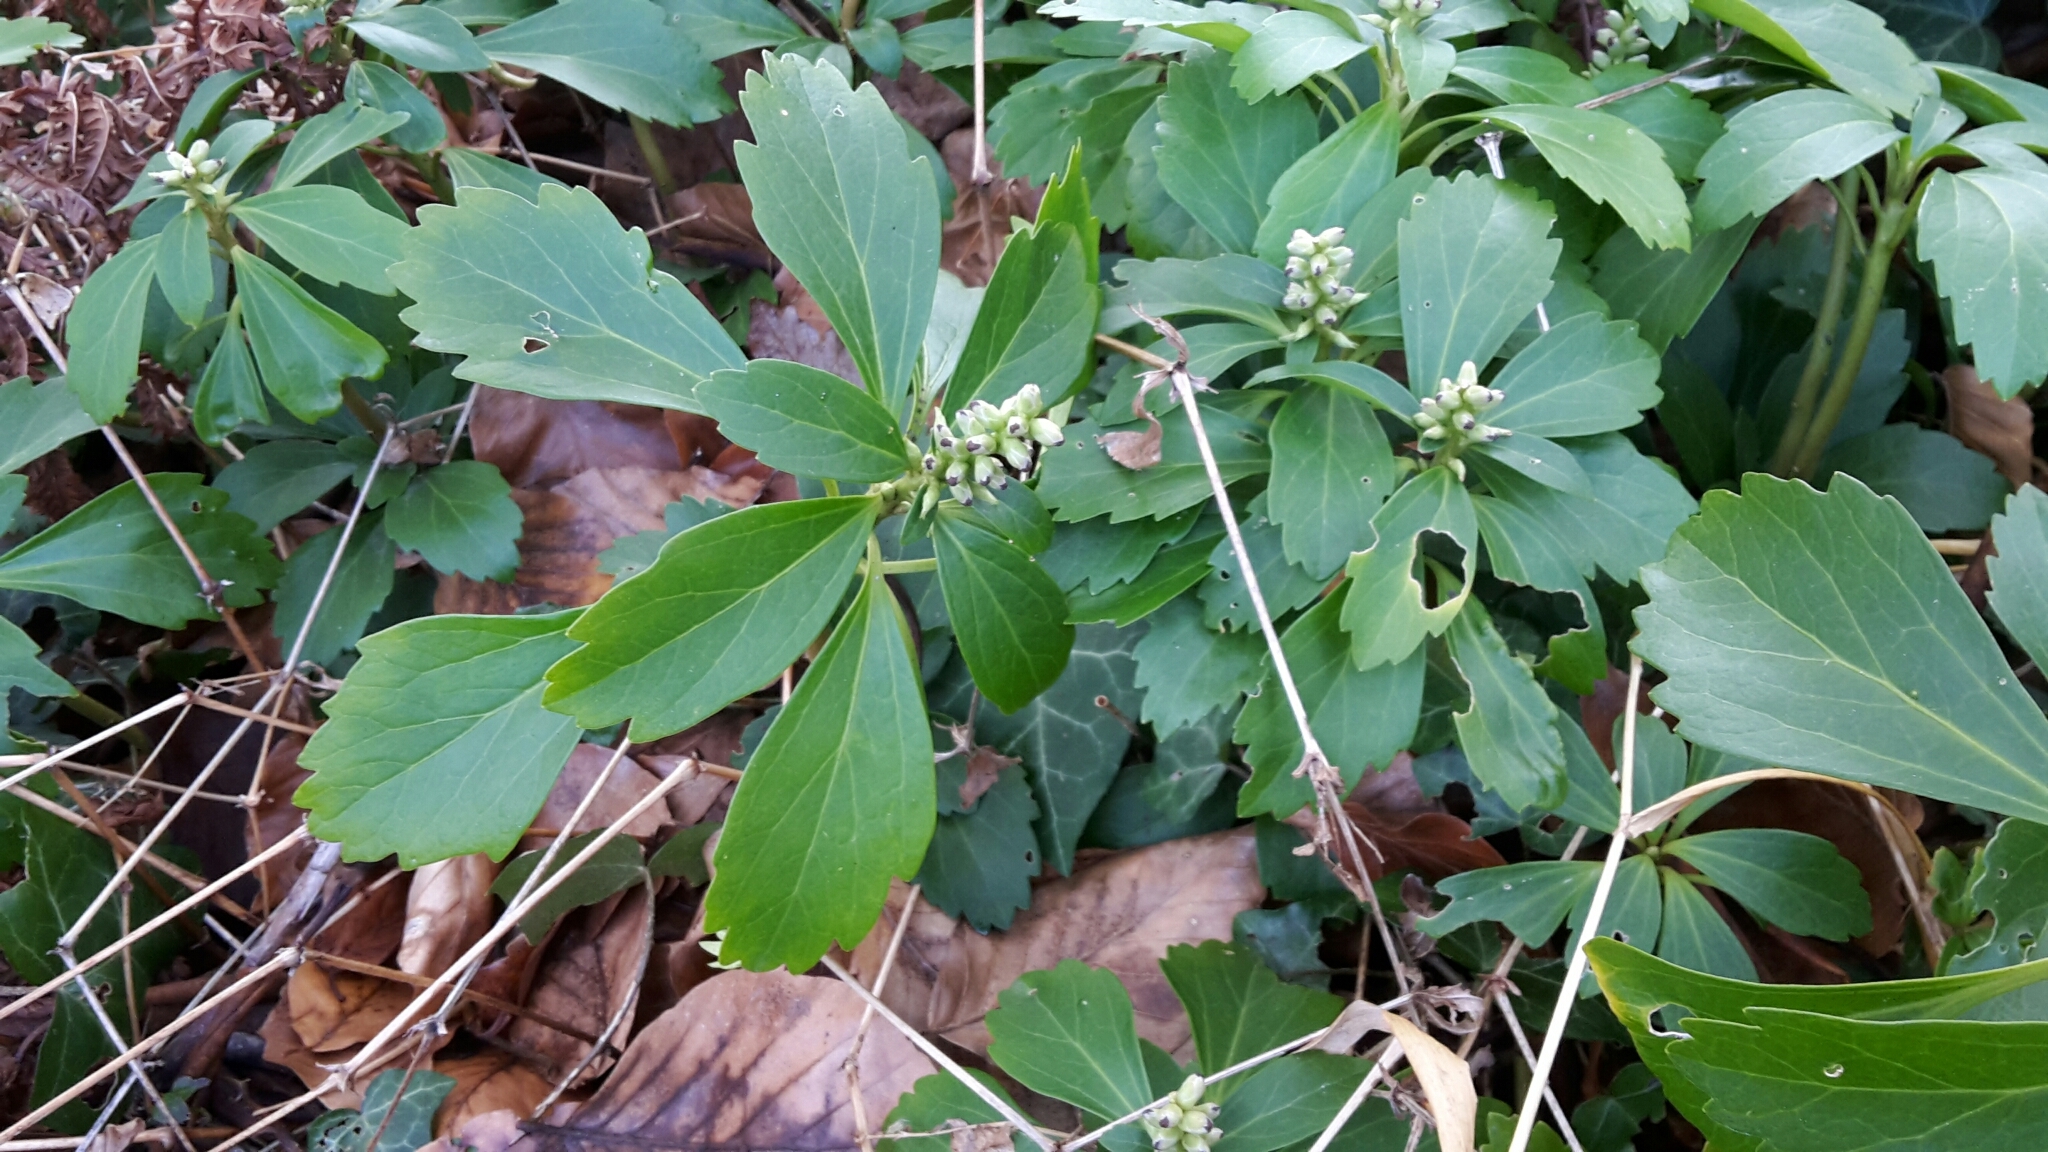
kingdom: Plantae
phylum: Tracheophyta
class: Magnoliopsida
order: Buxales
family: Buxaceae
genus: Pachysandra
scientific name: Pachysandra terminalis
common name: Japanese pachysandra
